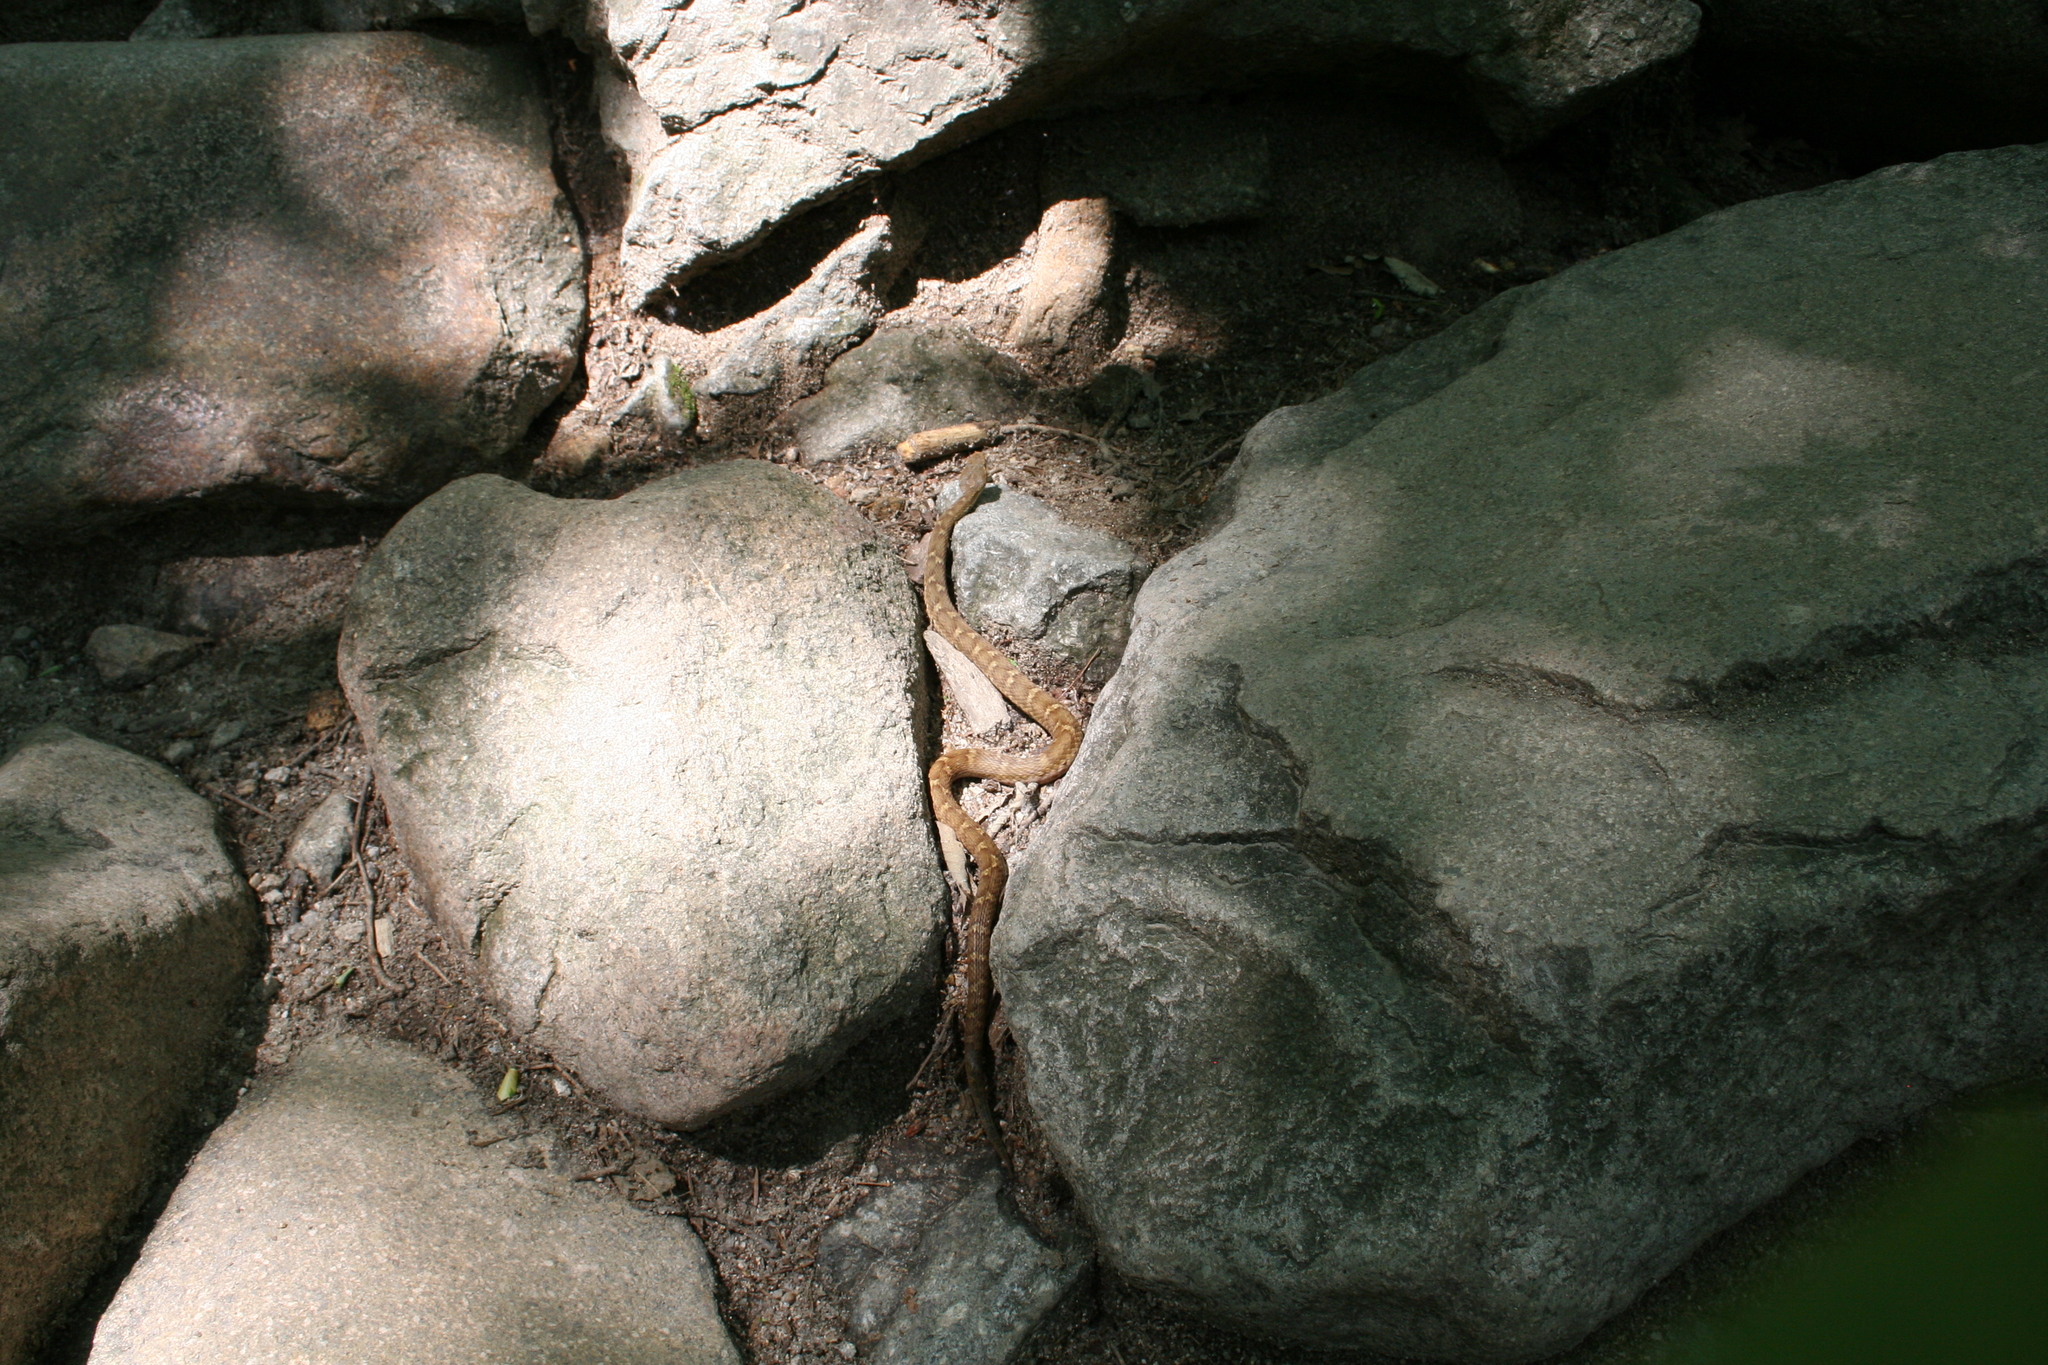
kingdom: Animalia
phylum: Chordata
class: Squamata
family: Viperidae
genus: Gloydius
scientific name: Gloydius ussuriensis
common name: Ussuri mamushi
